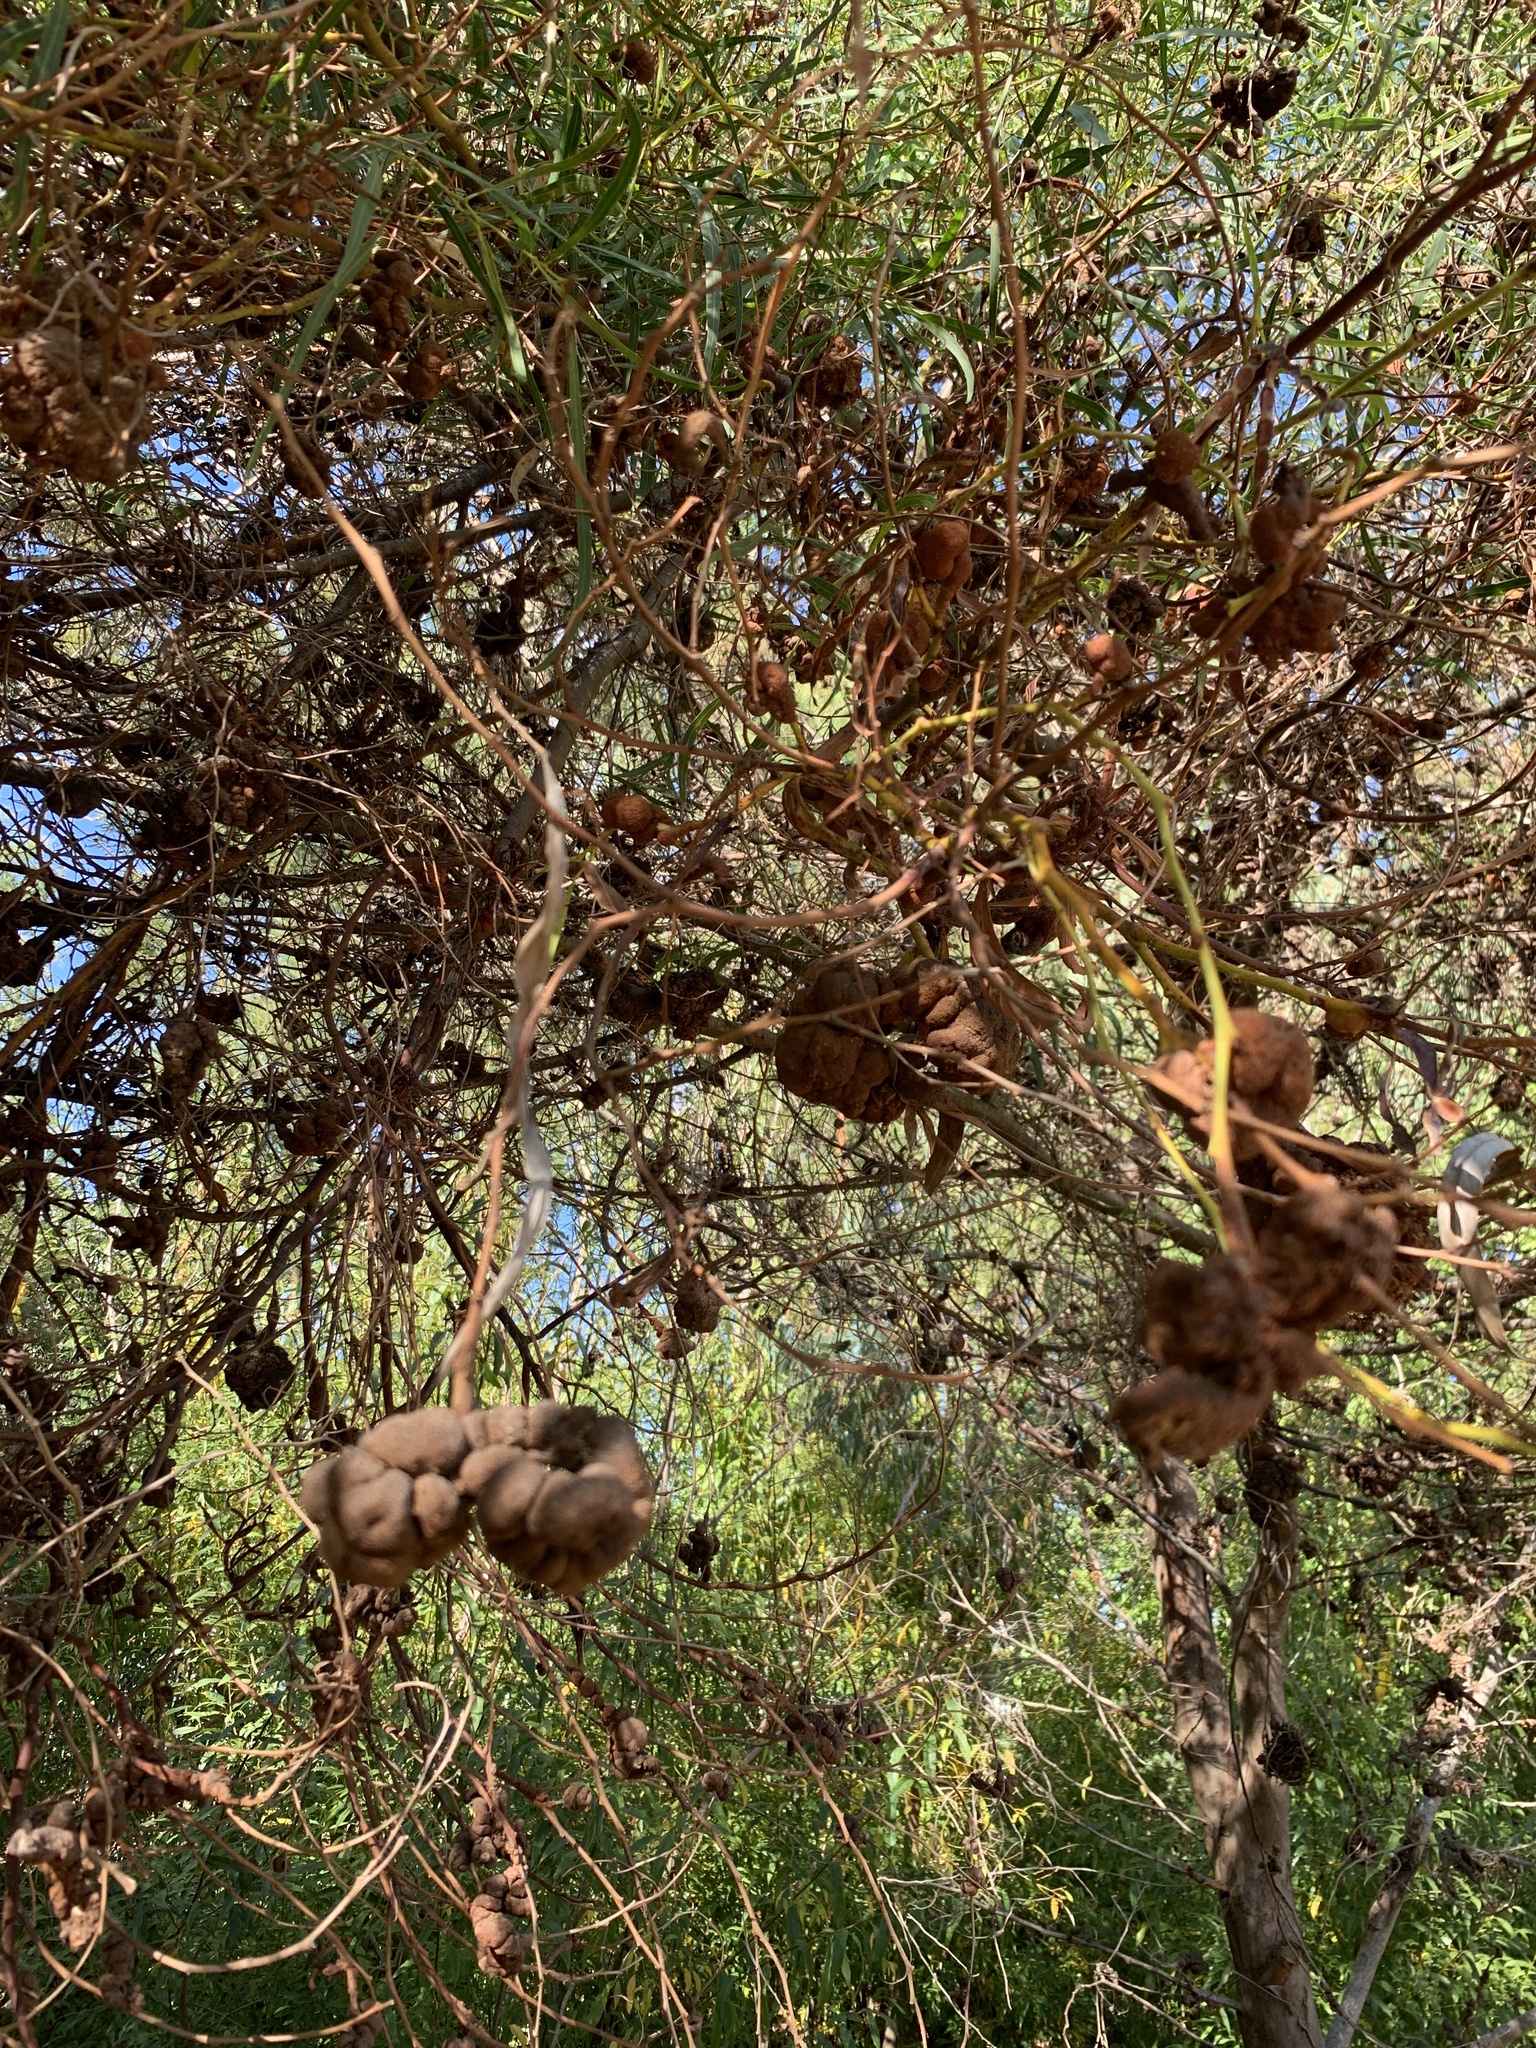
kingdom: Fungi
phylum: Basidiomycota
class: Pucciniomycetes
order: Pucciniales
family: Uromycladiaceae
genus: Uromycladium
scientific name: Uromycladium morrisii
